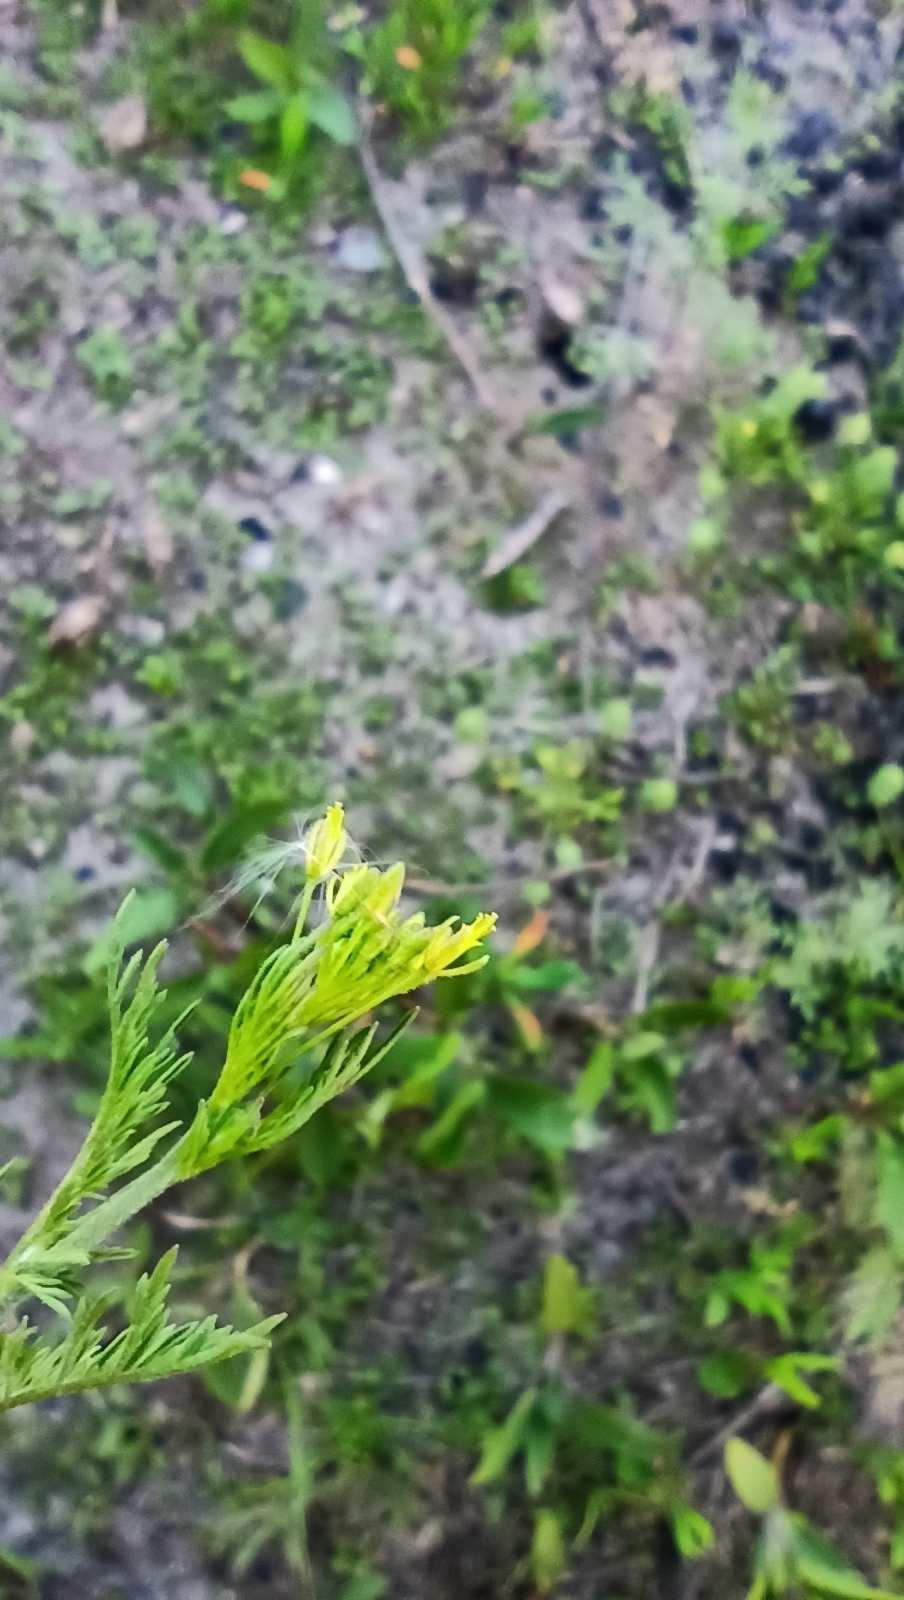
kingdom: Plantae
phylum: Tracheophyta
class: Magnoliopsida
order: Brassicales
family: Brassicaceae
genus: Descurainia
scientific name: Descurainia sophia
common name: Flixweed
